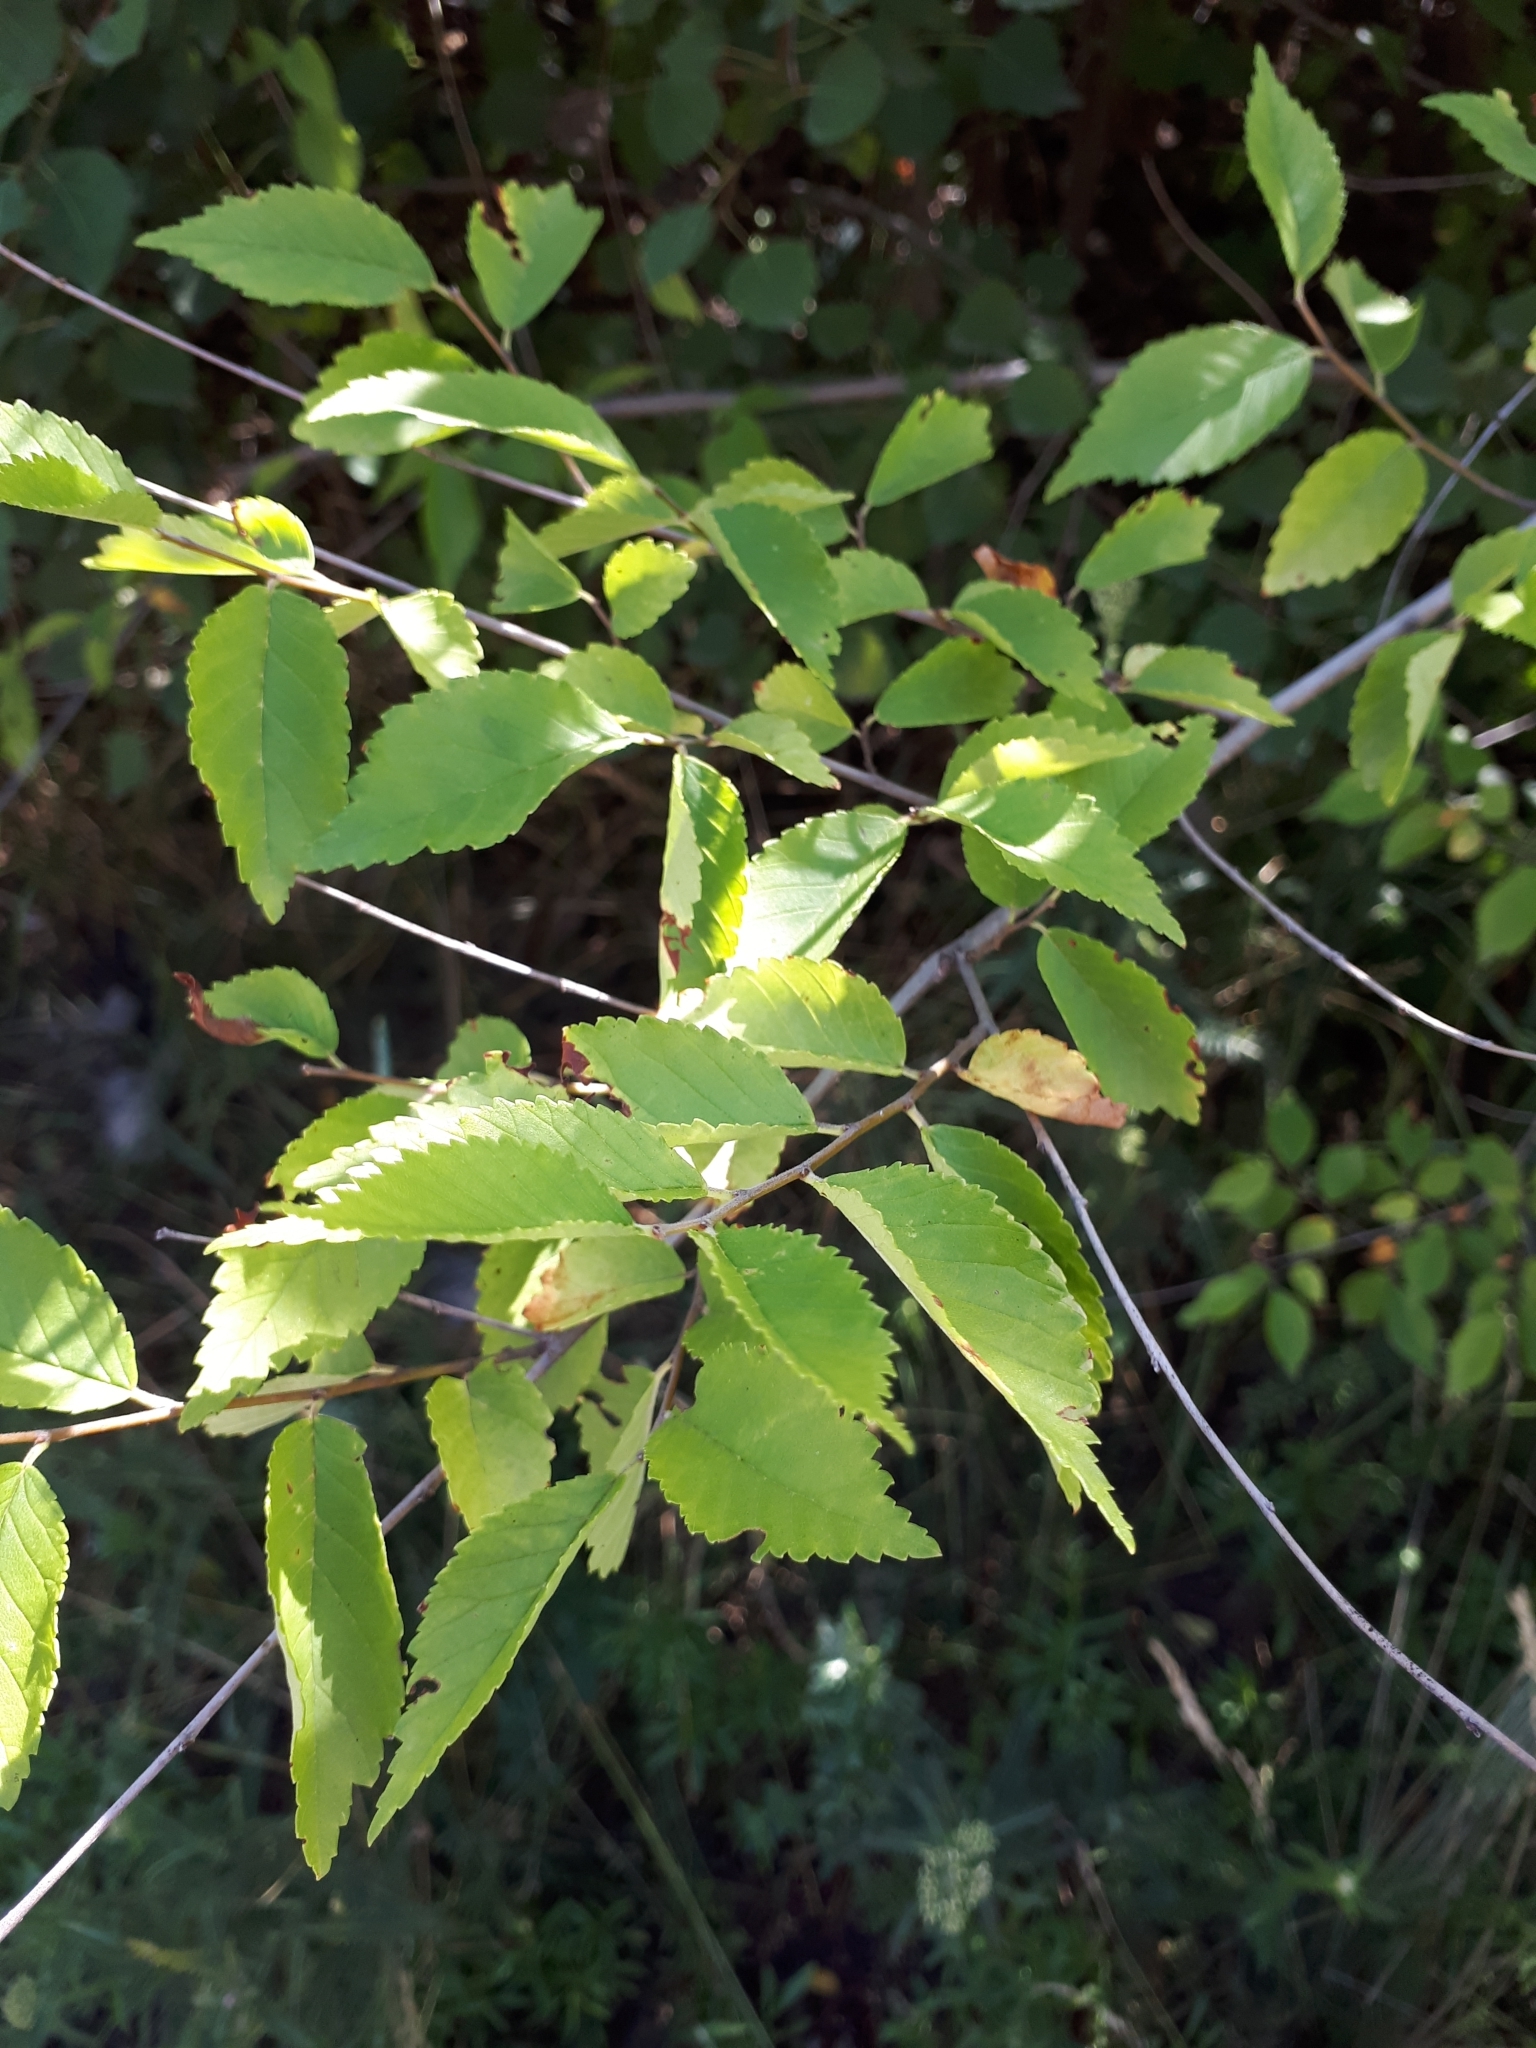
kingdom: Plantae
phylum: Tracheophyta
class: Magnoliopsida
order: Rosales
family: Ulmaceae
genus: Ulmus
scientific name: Ulmus pumila
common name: Siberian elm
